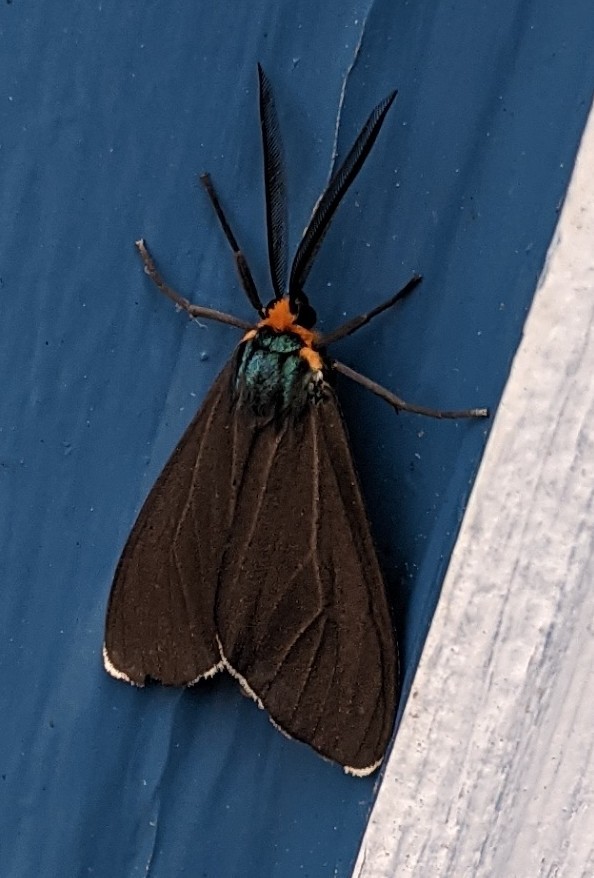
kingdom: Animalia
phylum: Arthropoda
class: Insecta
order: Lepidoptera
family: Erebidae
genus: Ctenucha
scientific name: Ctenucha virginica
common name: Virginia ctenucha moth
